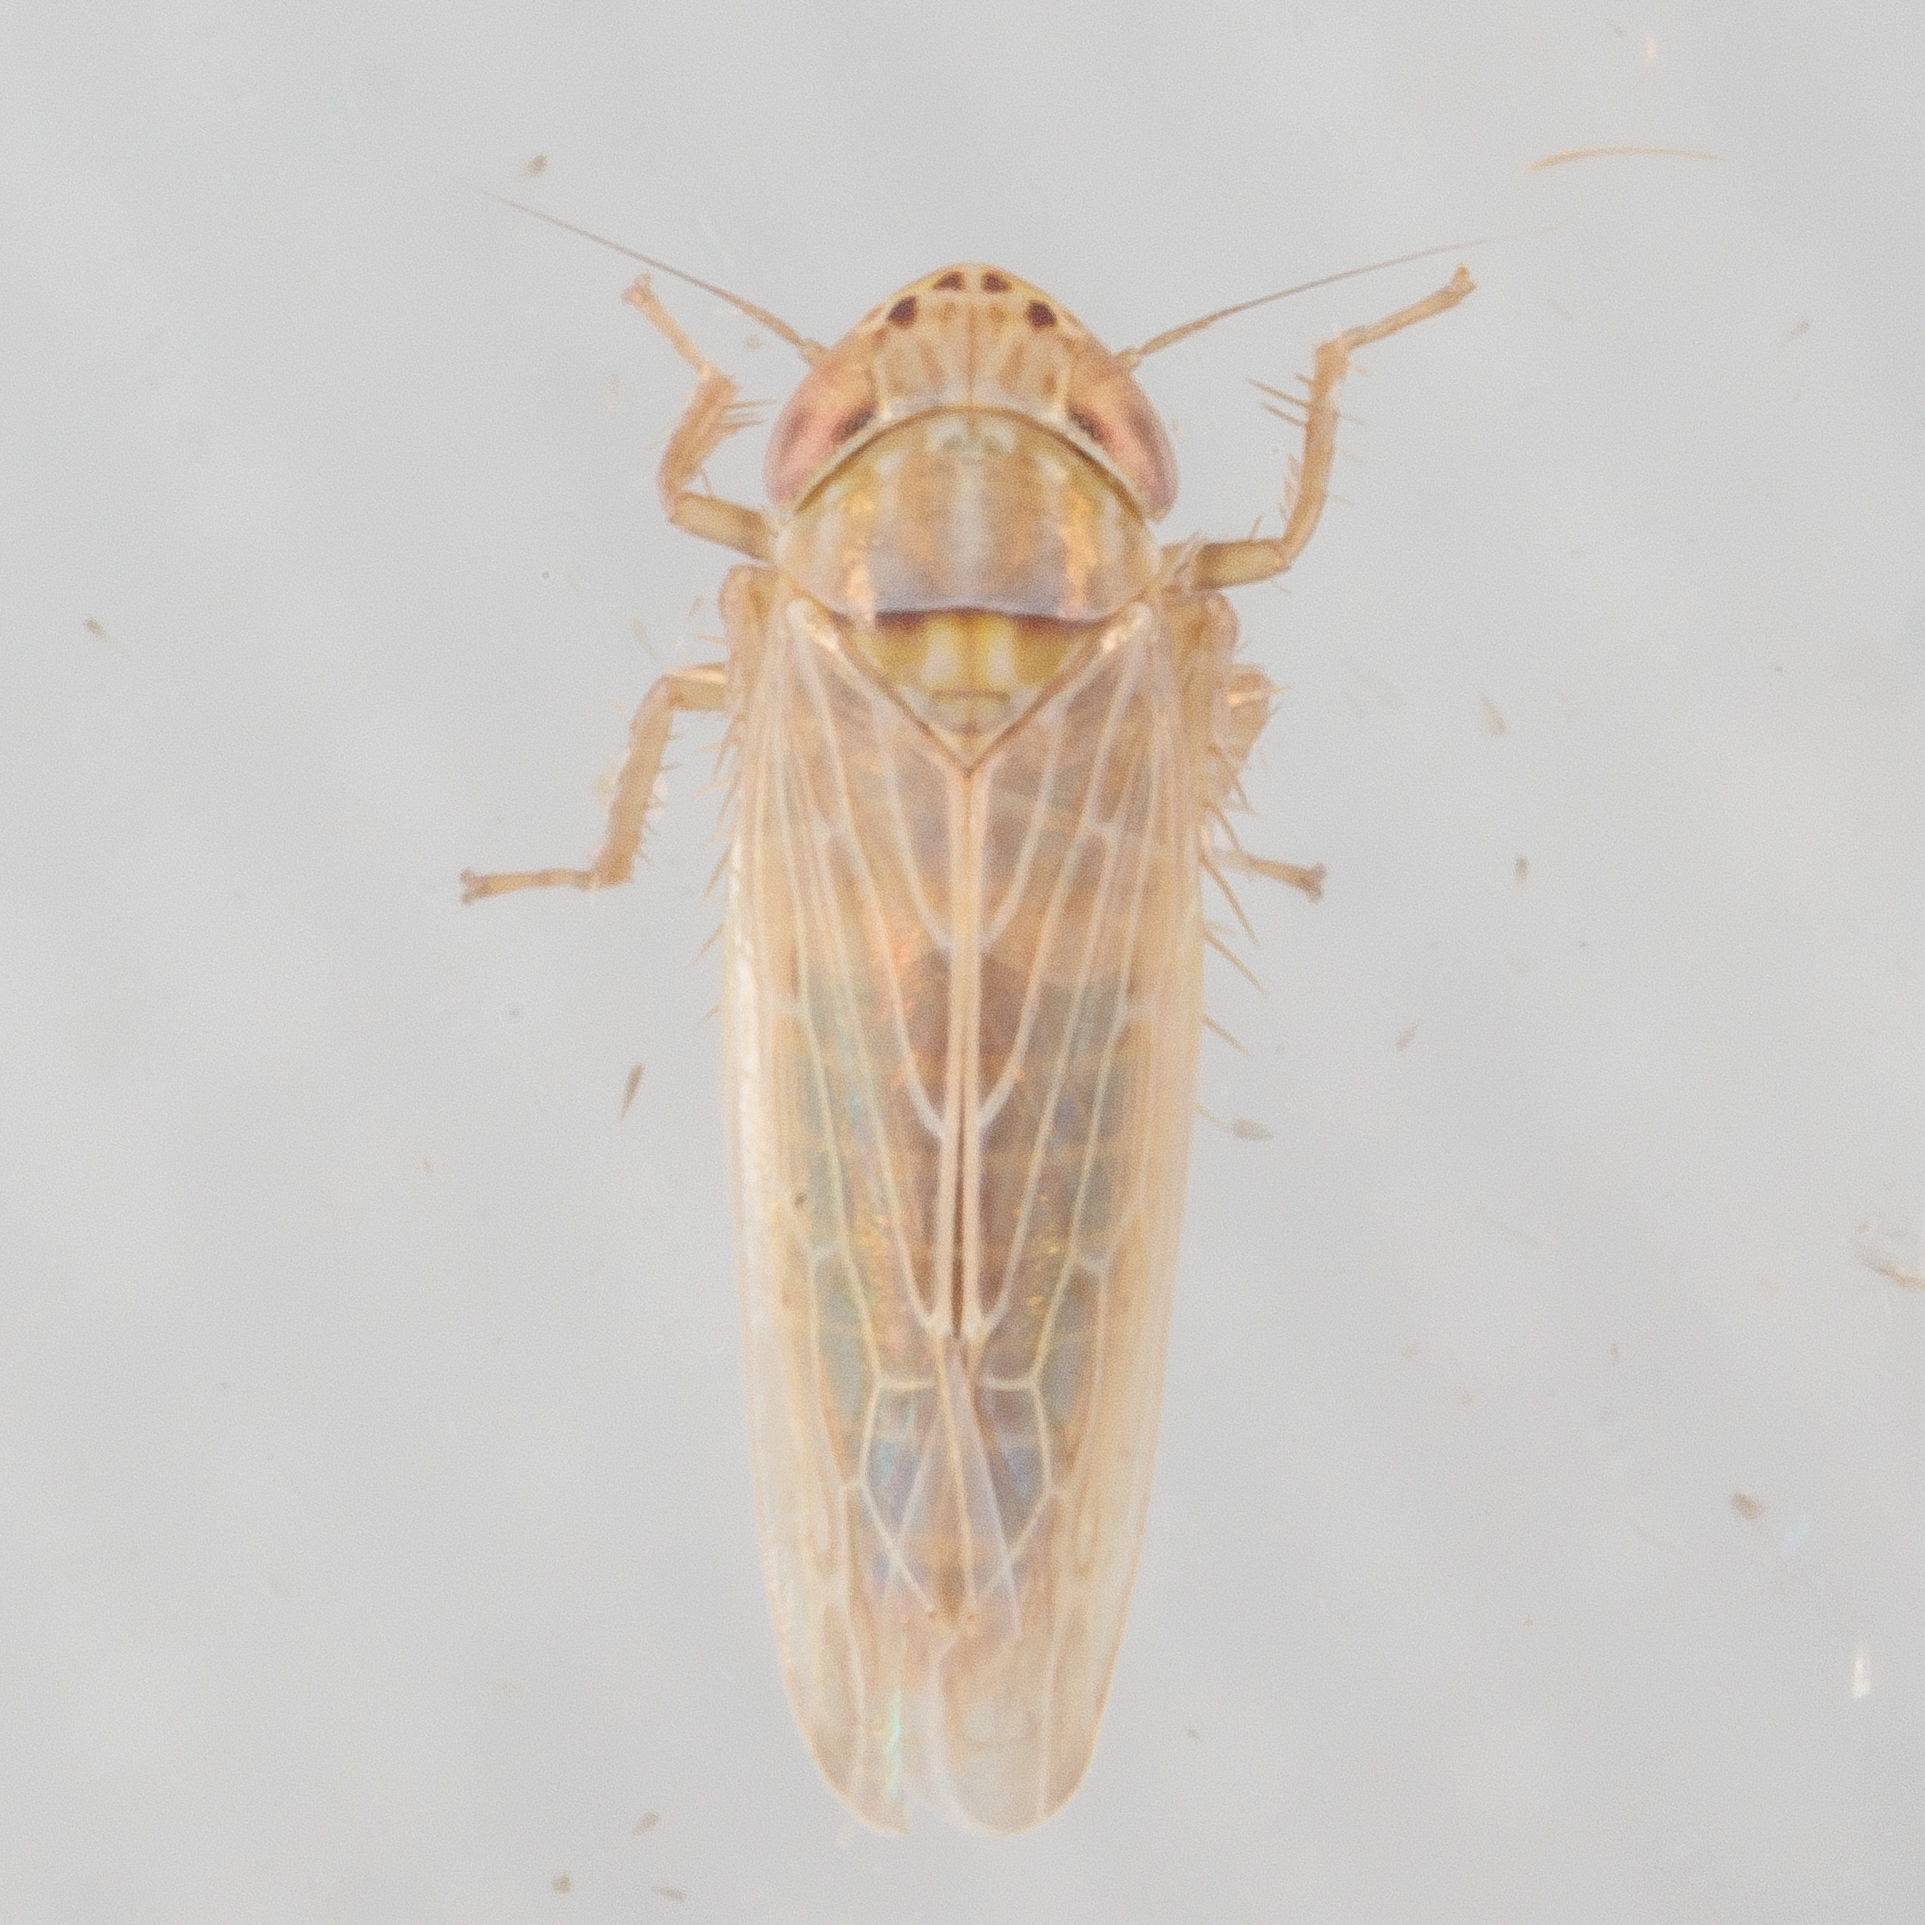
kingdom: Animalia
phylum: Arthropoda
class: Insecta
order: Hemiptera
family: Cicadellidae
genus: Graminella
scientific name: Graminella sonora
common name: Lesser lawn leafhopper
